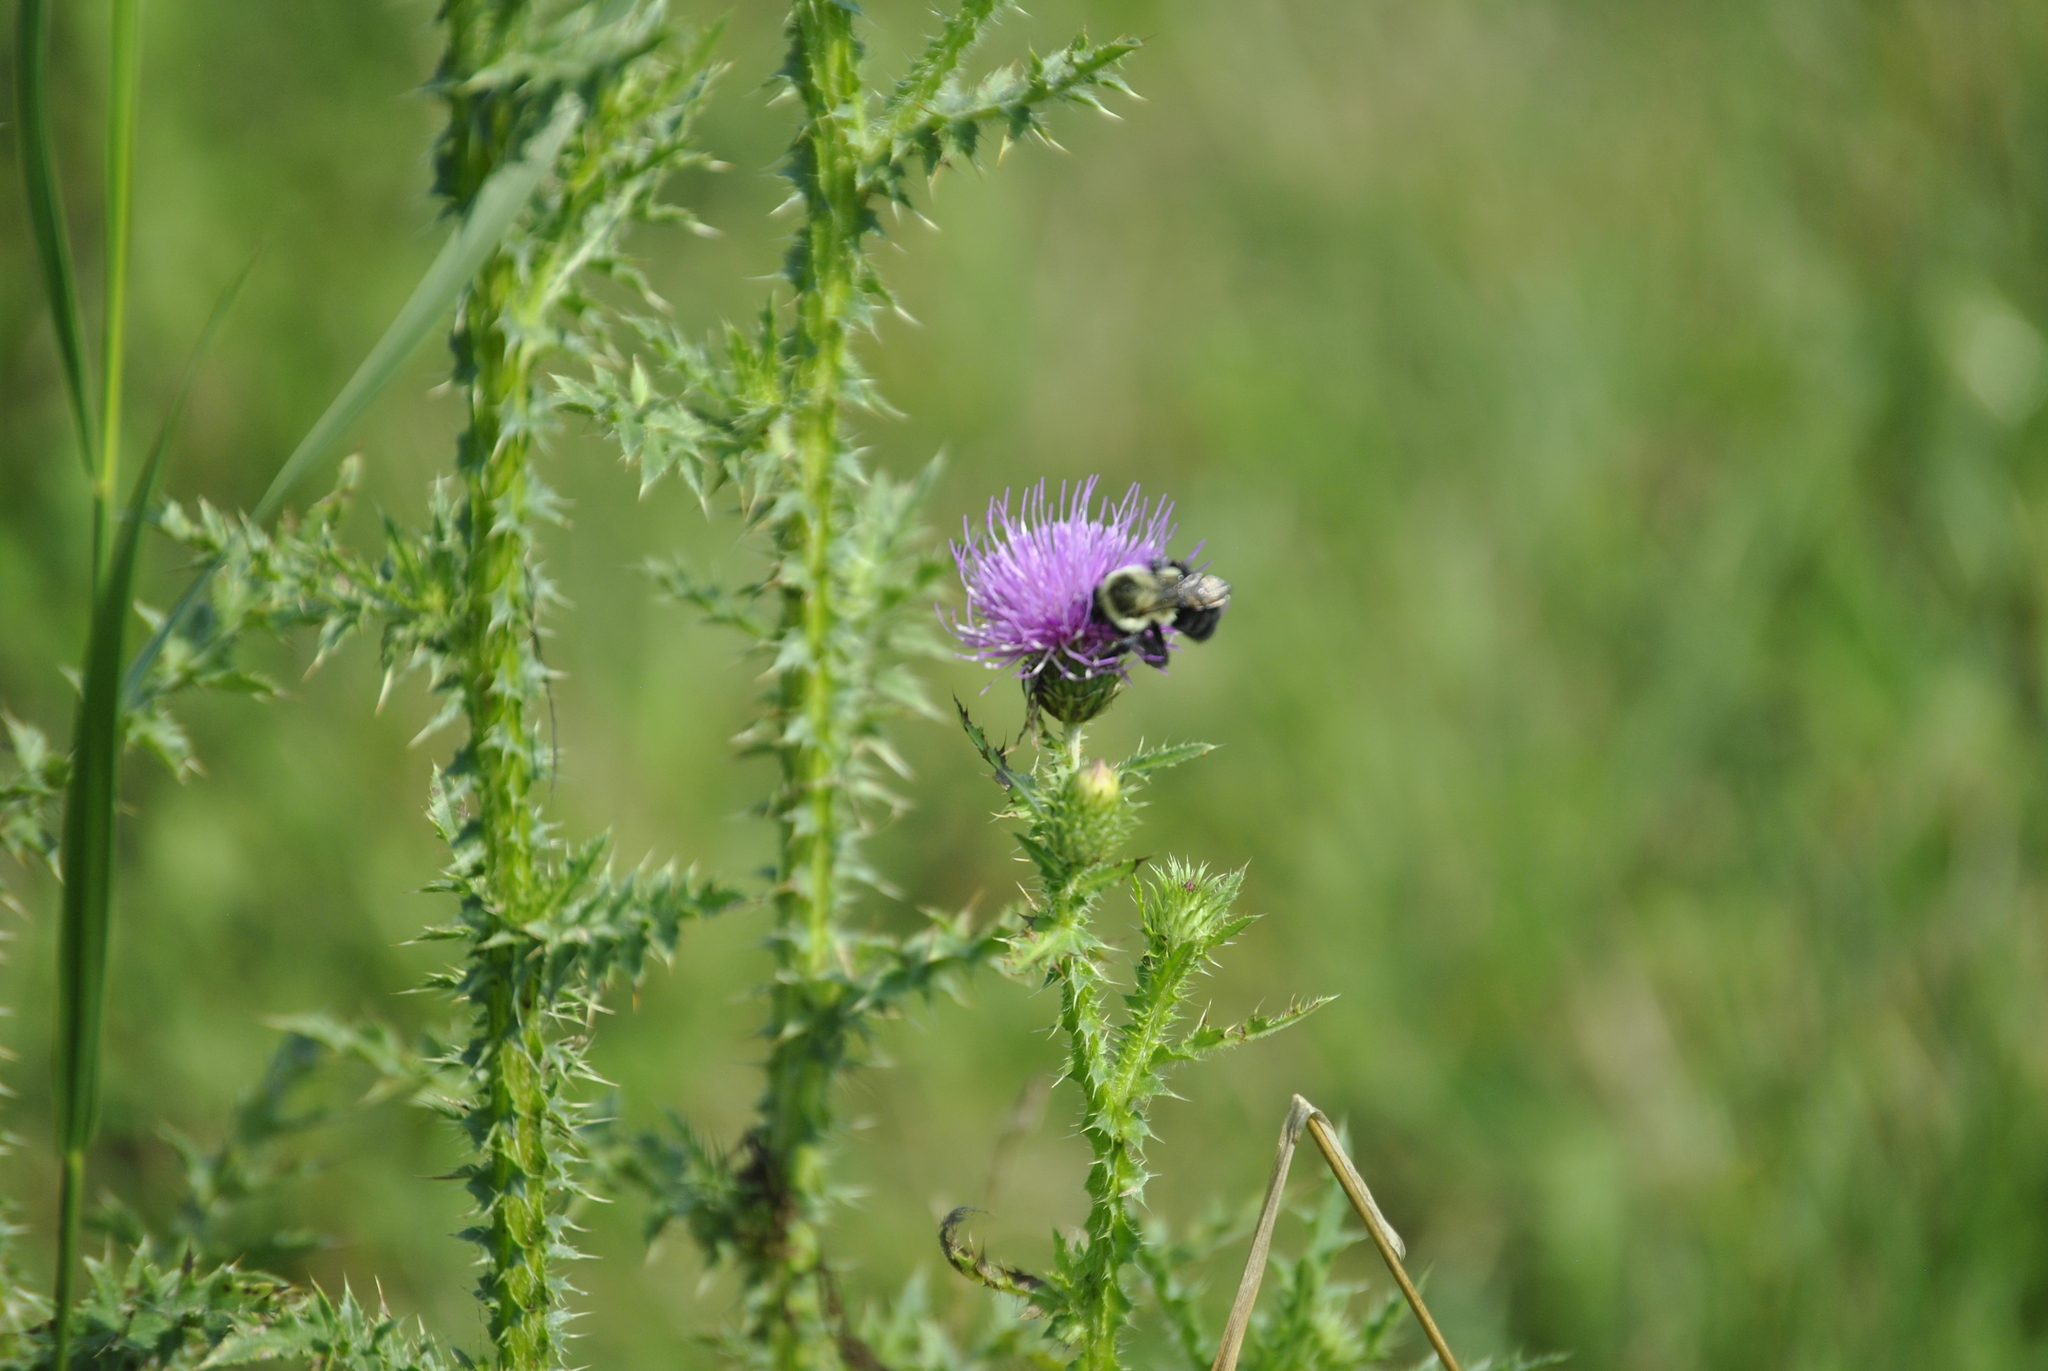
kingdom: Plantae
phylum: Tracheophyta
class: Magnoliopsida
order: Asterales
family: Asteraceae
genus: Carduus
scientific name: Carduus acanthoides
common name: Plumeless thistle
